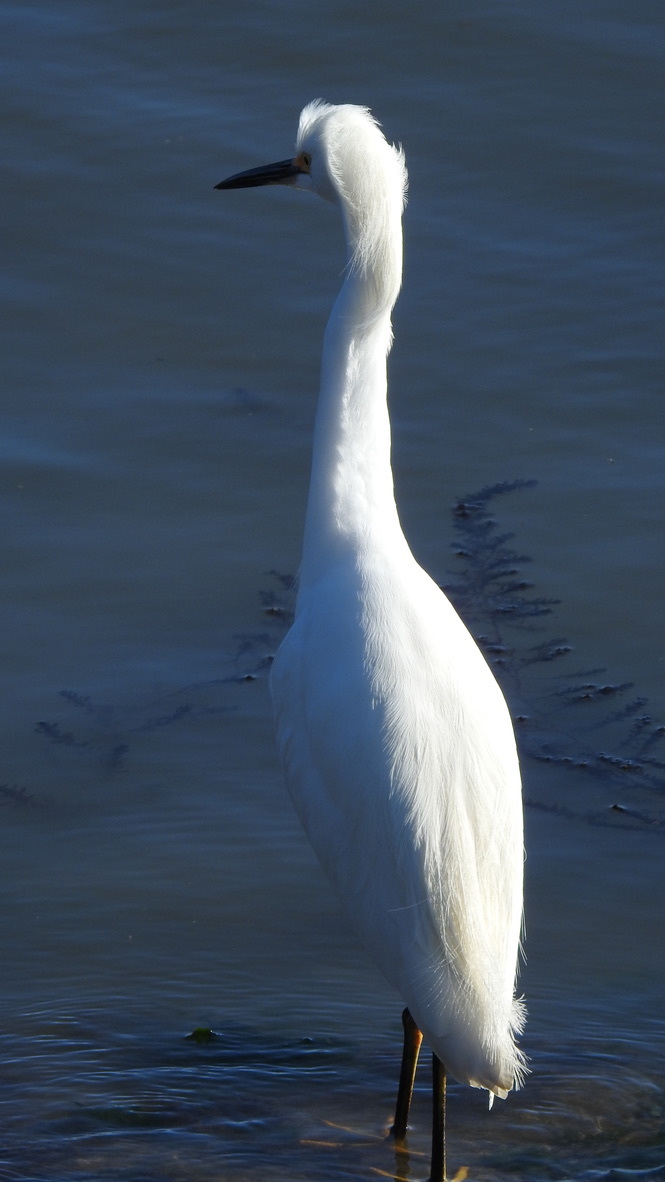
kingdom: Animalia
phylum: Chordata
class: Aves
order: Pelecaniformes
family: Ardeidae
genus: Egretta
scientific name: Egretta thula
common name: Snowy egret
